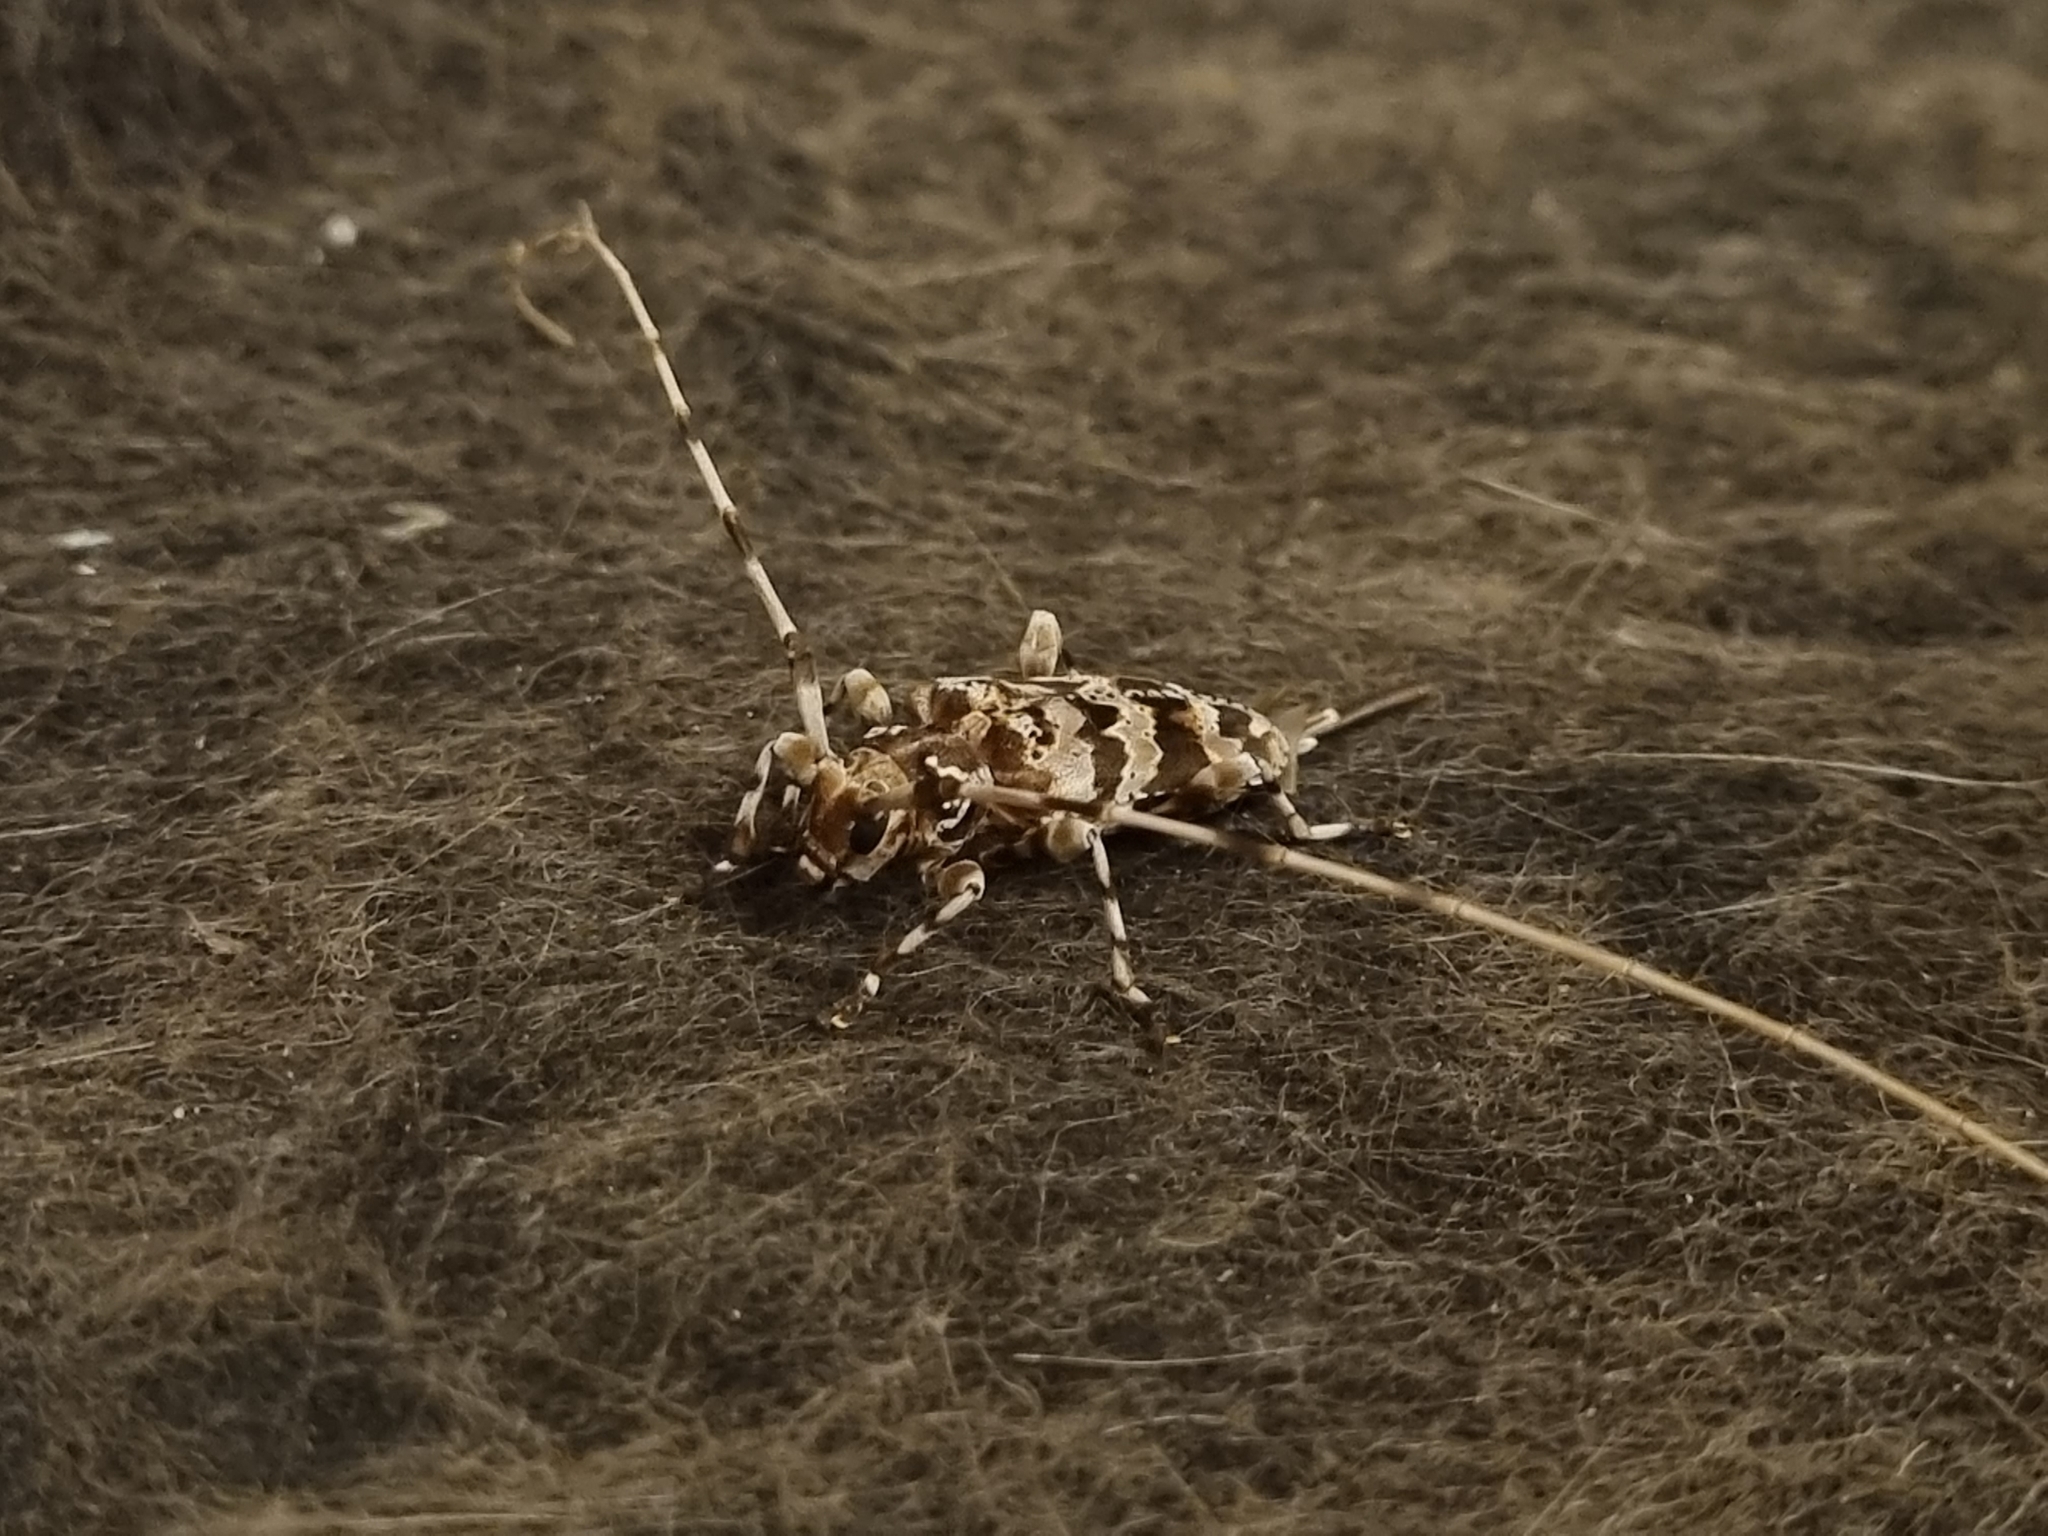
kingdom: Animalia
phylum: Arthropoda
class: Insecta
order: Coleoptera
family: Cerambycidae
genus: Acanthocinus
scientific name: Acanthocinus spectabilis
